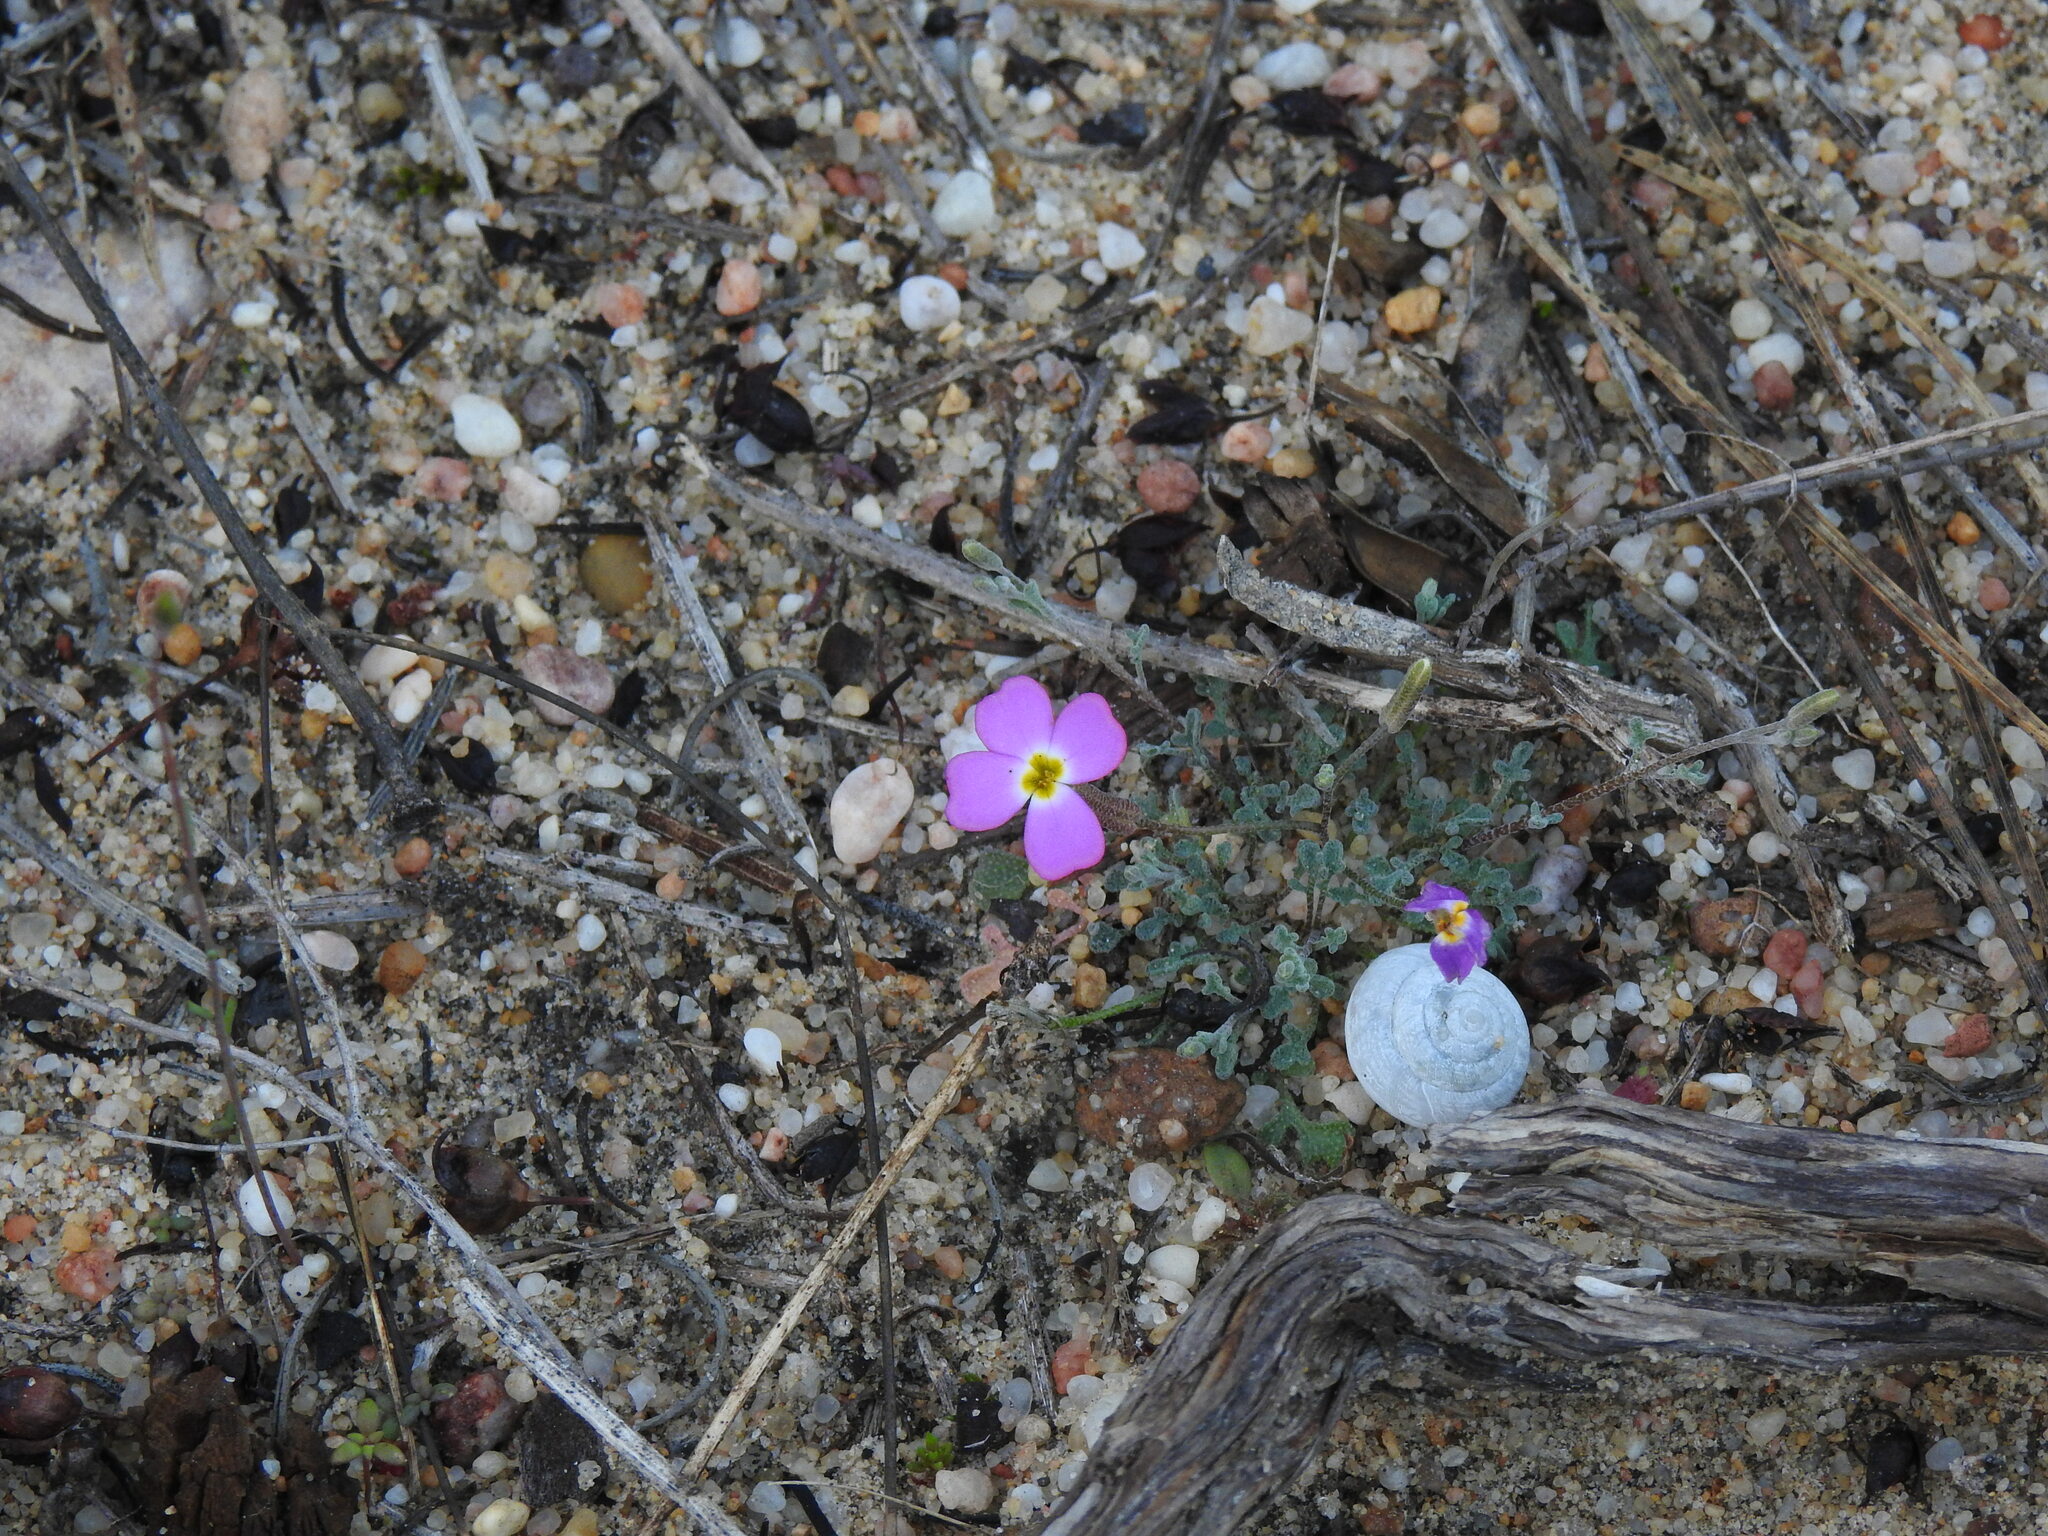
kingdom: Plantae
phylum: Tracheophyta
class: Magnoliopsida
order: Brassicales
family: Brassicaceae
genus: Marcuskochia
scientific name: Marcuskochia triloba
